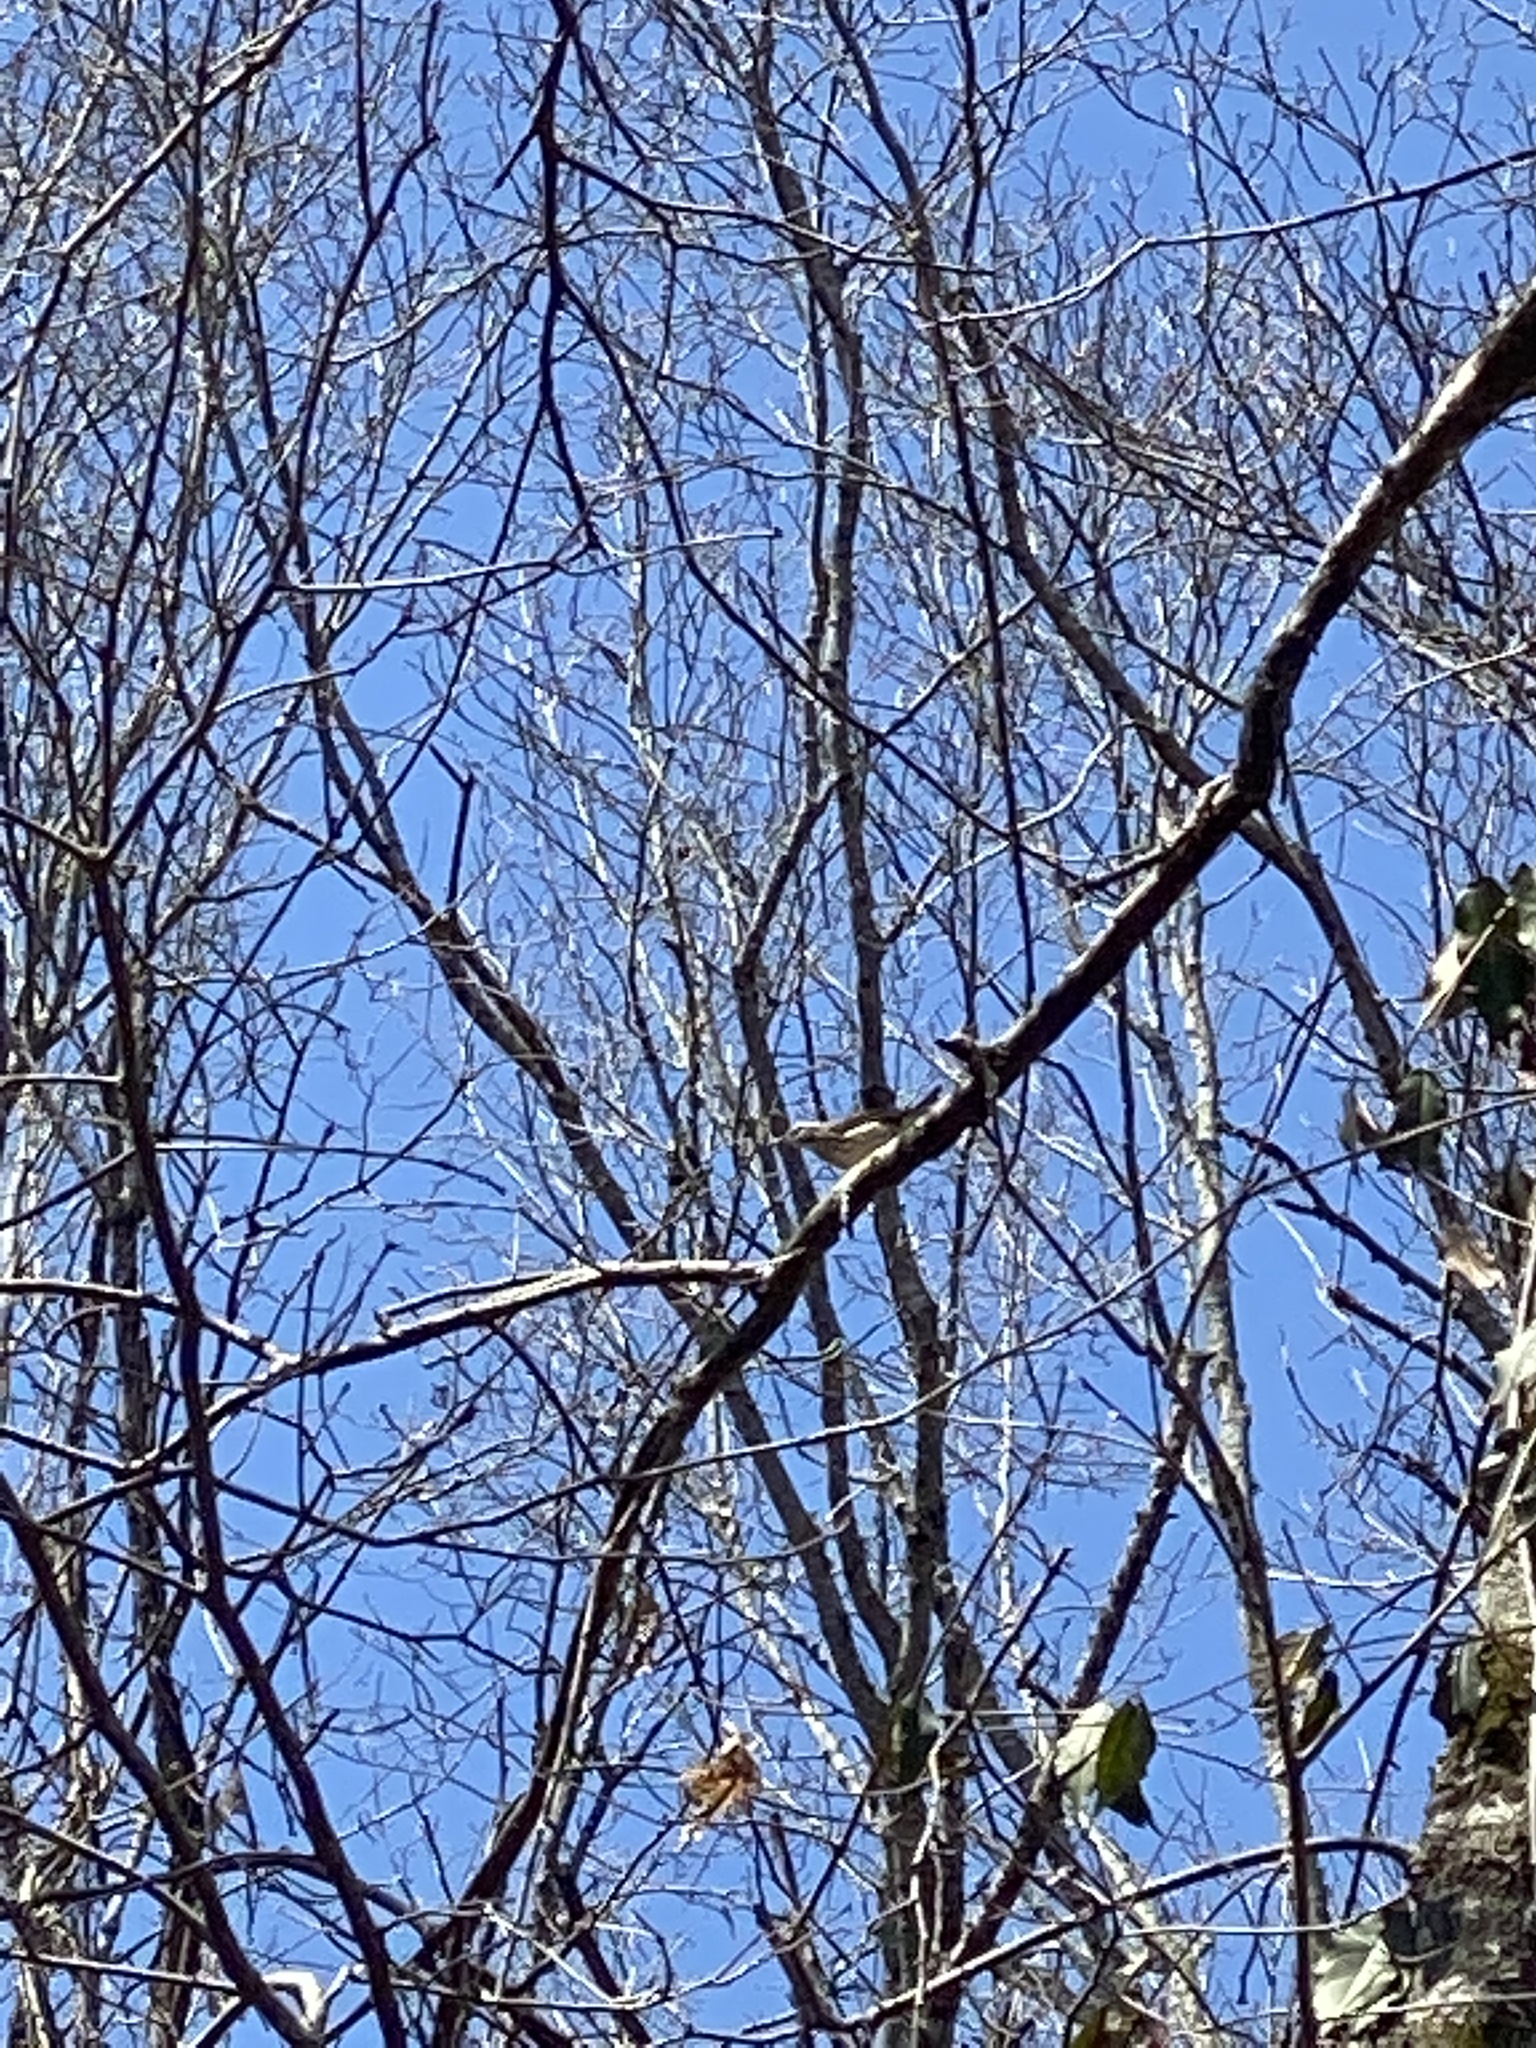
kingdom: Animalia
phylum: Chordata
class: Aves
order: Passeriformes
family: Parulidae
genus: Parkesia
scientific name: Parkesia motacilla
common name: Louisiana waterthrush
